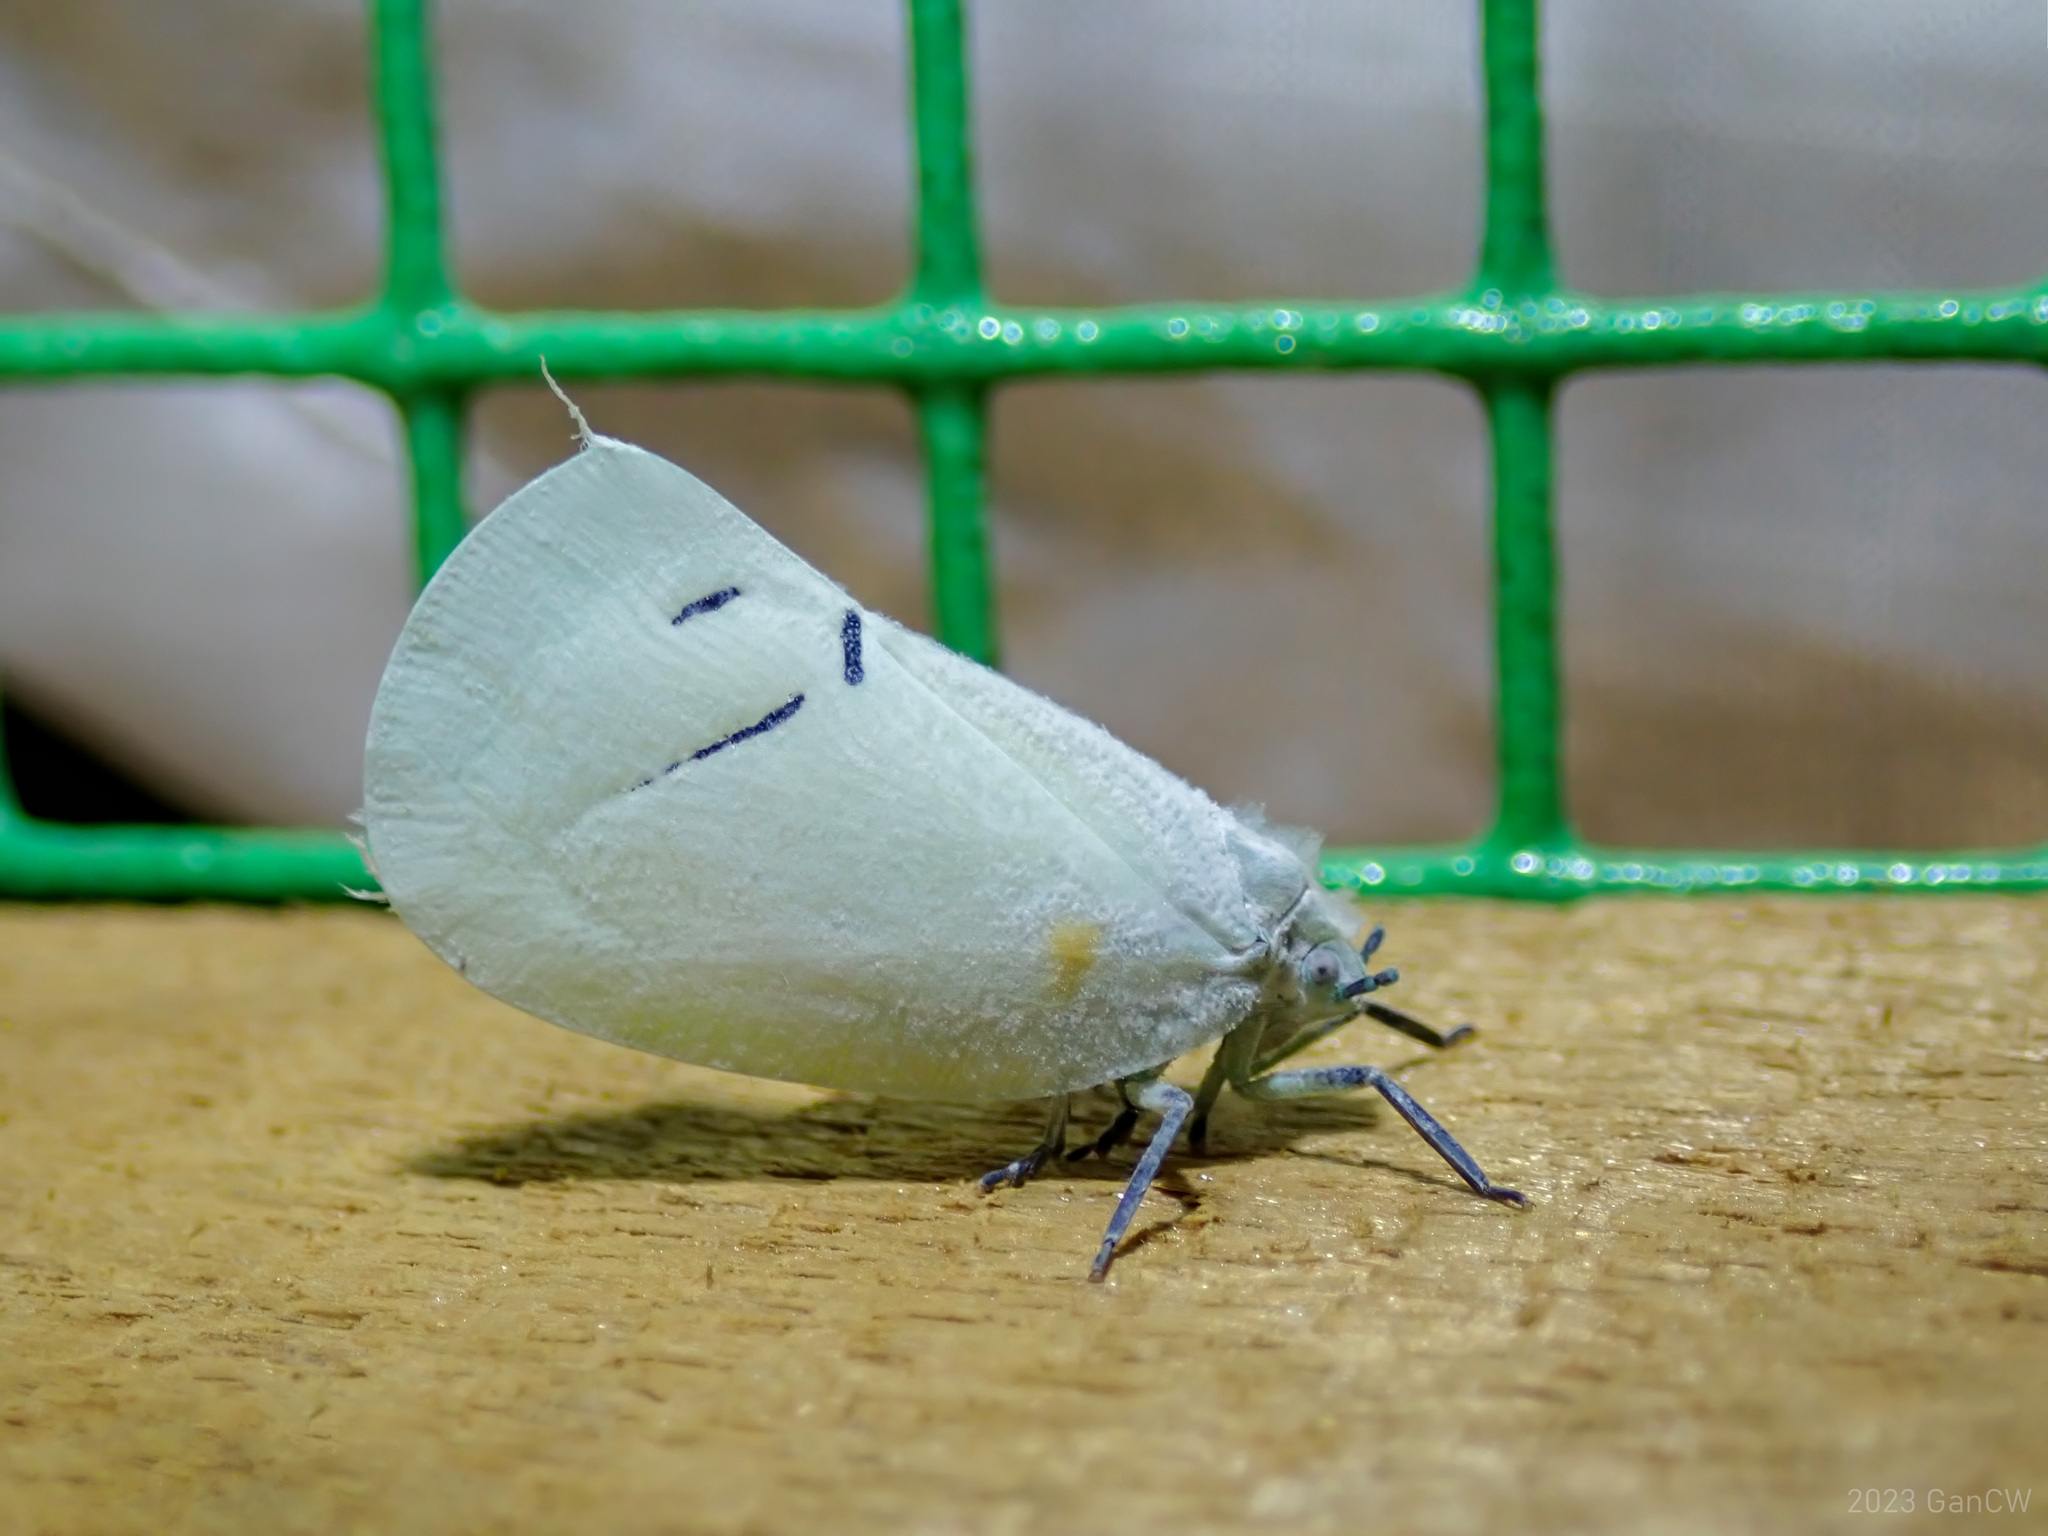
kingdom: Animalia
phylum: Arthropoda
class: Insecta
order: Hemiptera
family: Flatidae
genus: Cerynia
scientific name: Cerynia maria
